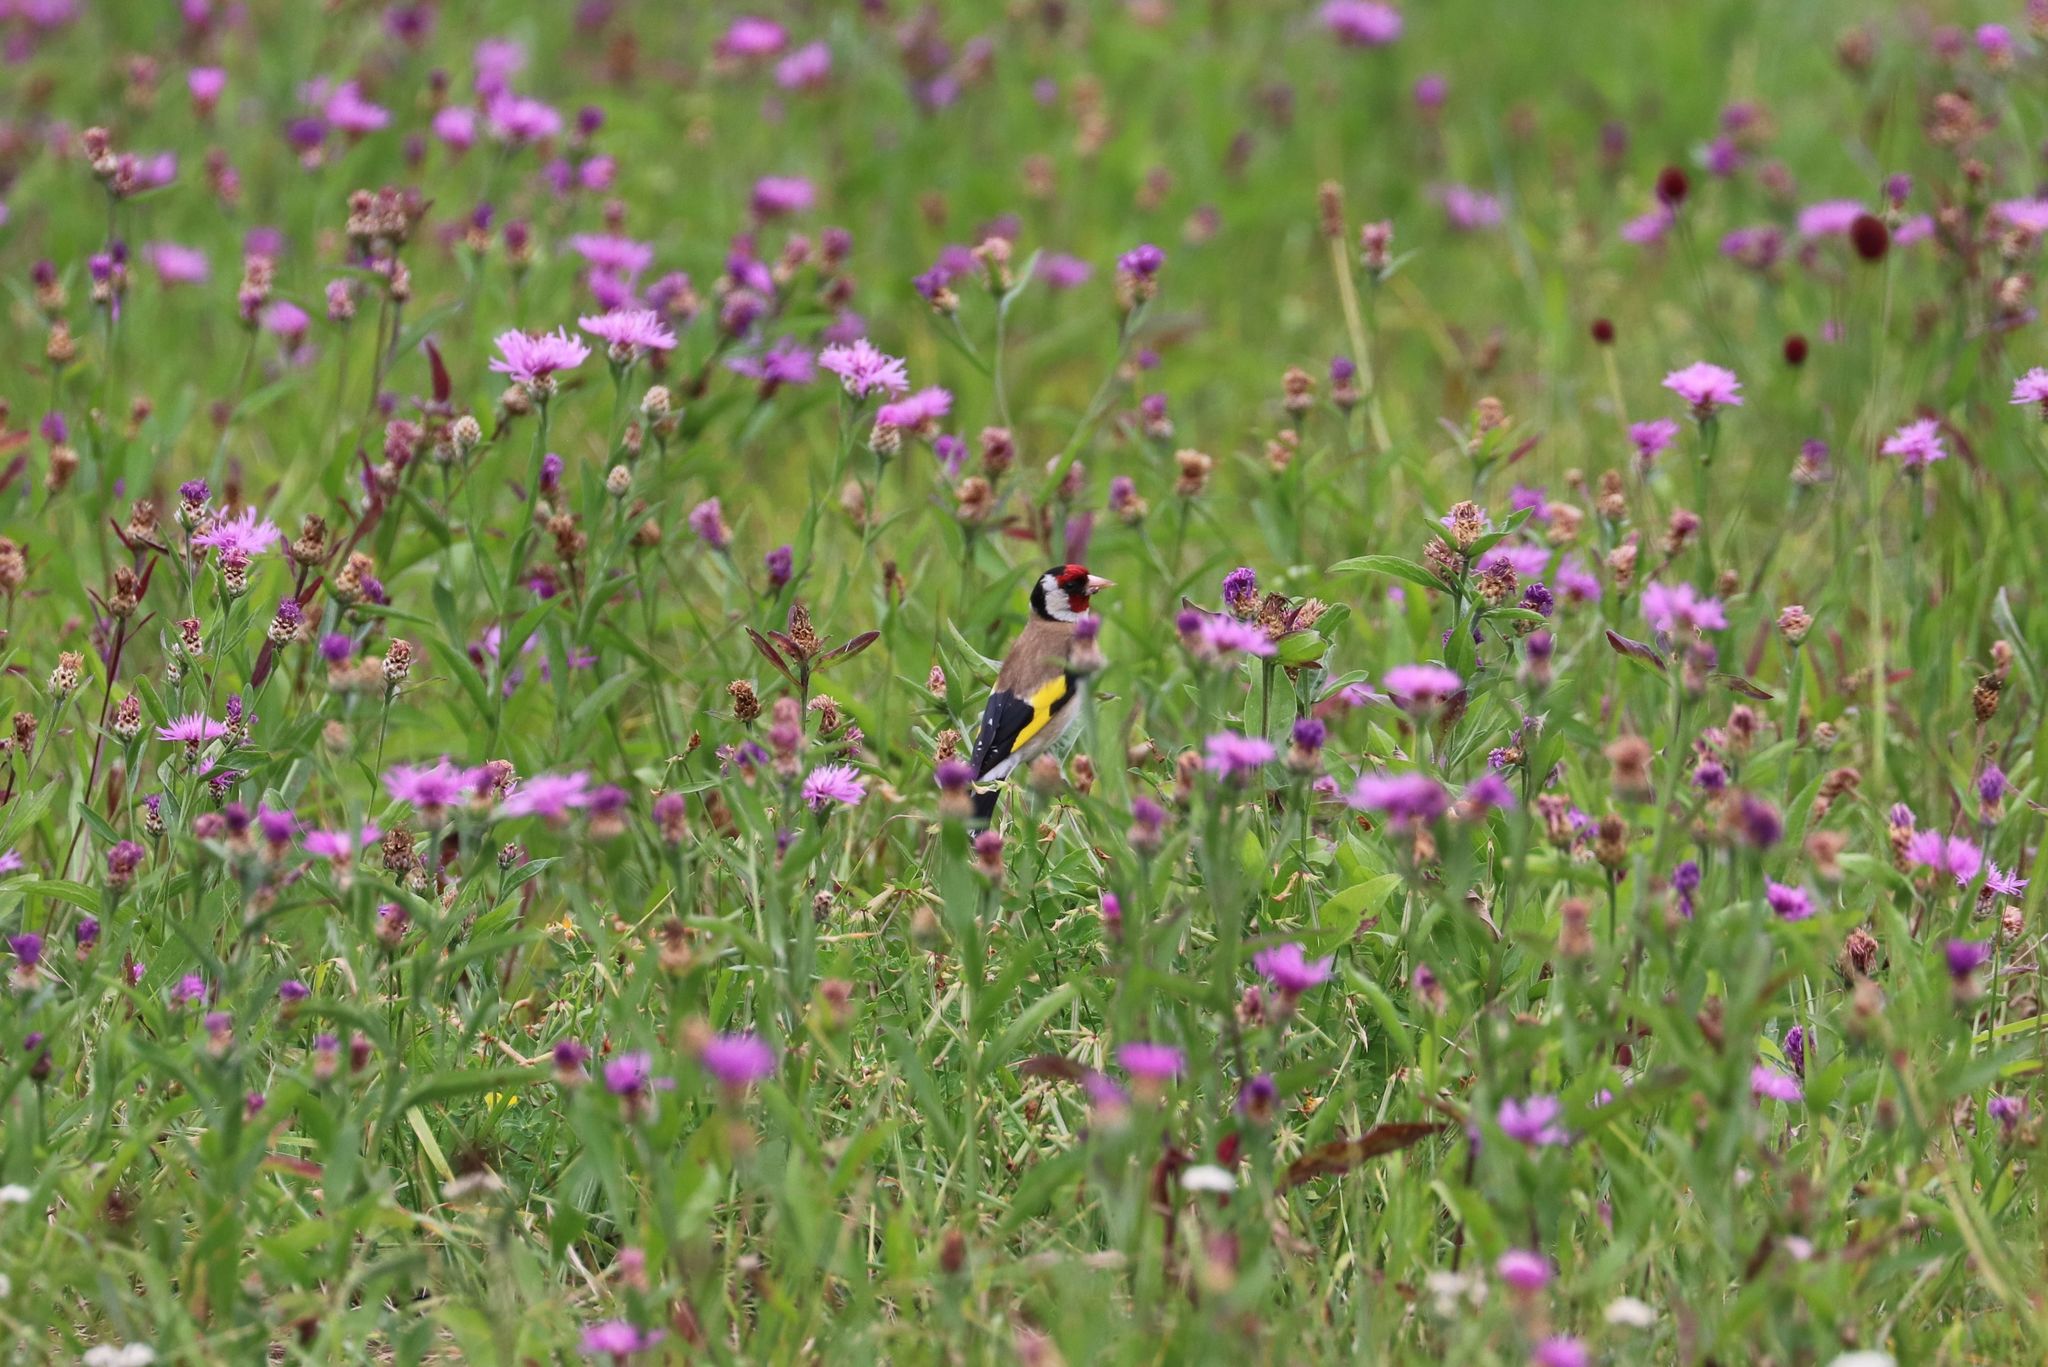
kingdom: Animalia
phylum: Chordata
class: Aves
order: Passeriformes
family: Fringillidae
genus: Carduelis
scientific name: Carduelis carduelis
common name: European goldfinch
